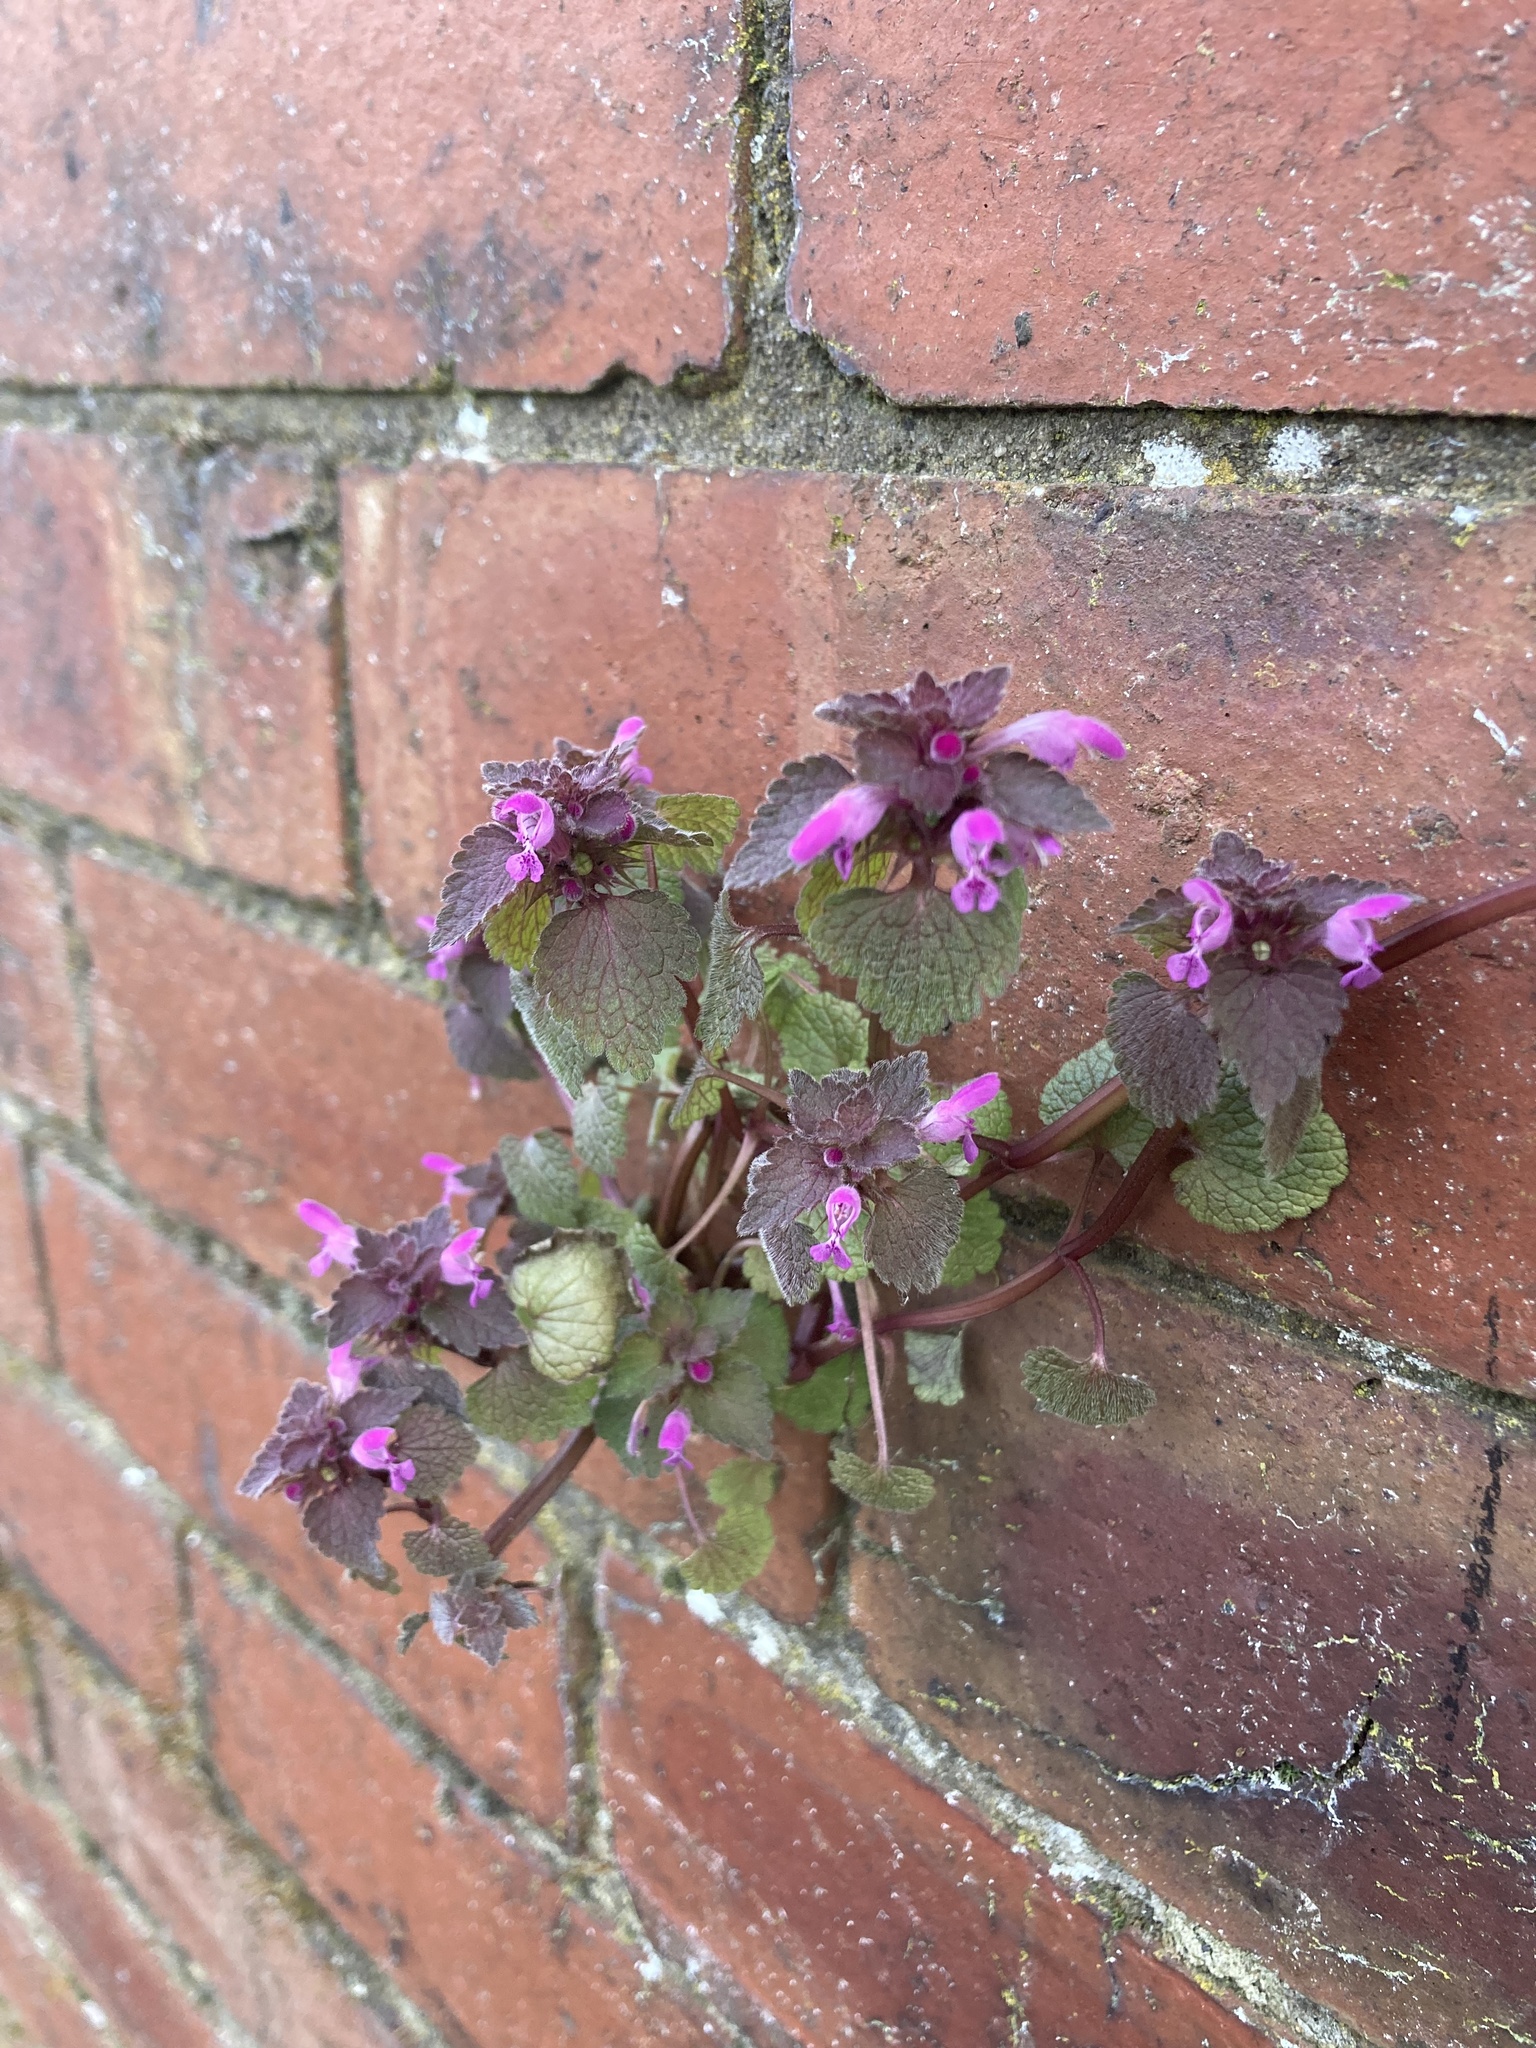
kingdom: Plantae
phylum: Tracheophyta
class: Magnoliopsida
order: Lamiales
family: Lamiaceae
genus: Lamium
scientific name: Lamium purpureum
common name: Red dead-nettle
